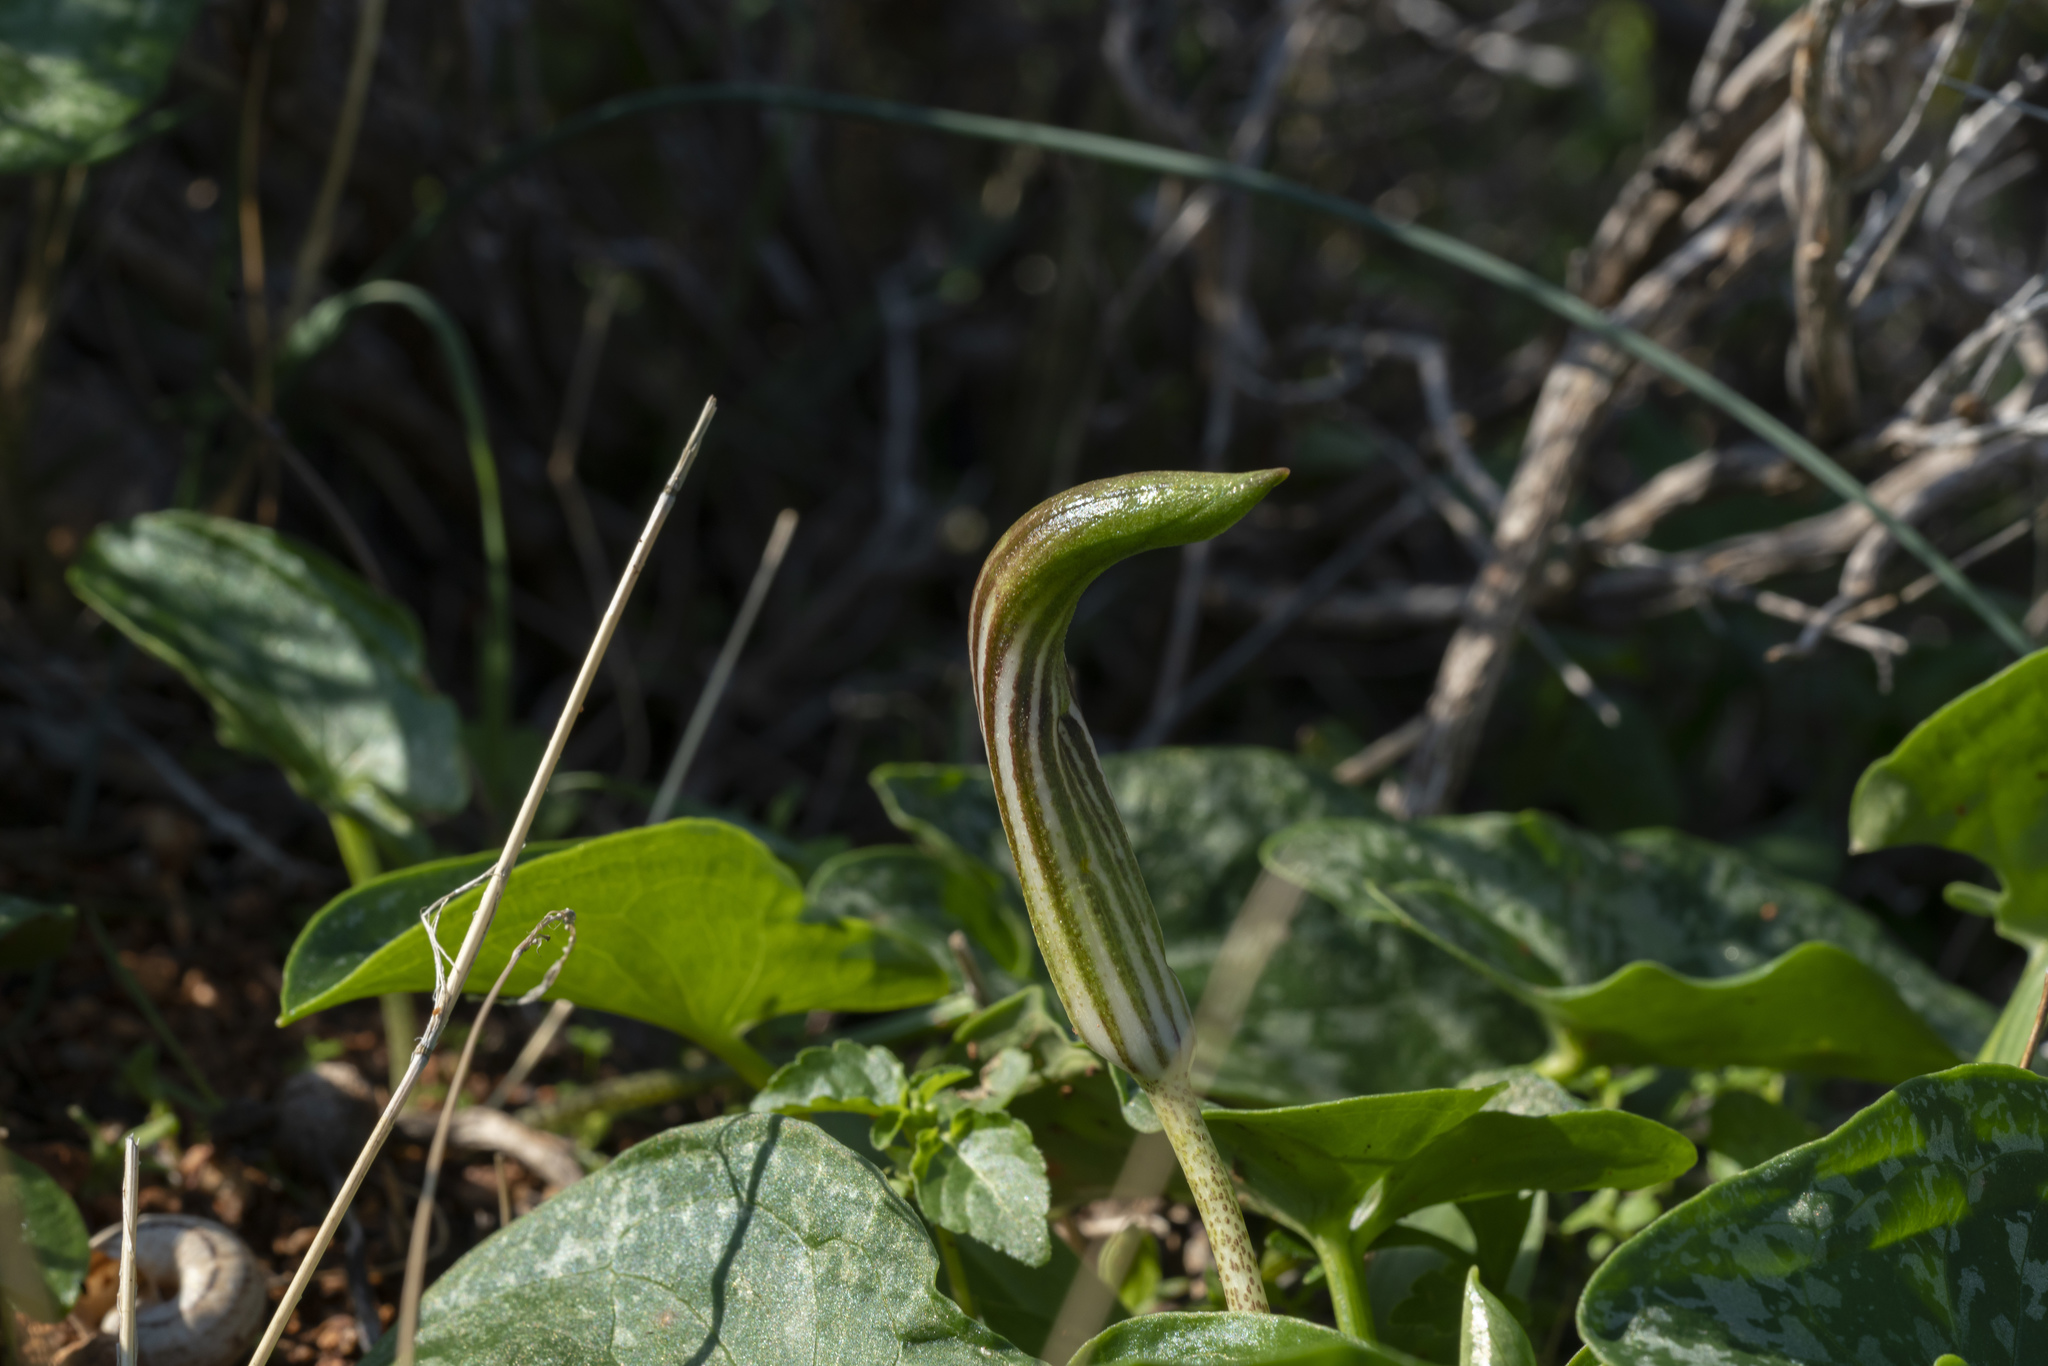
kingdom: Plantae
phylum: Tracheophyta
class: Liliopsida
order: Alismatales
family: Araceae
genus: Arisarum
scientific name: Arisarum vulgare
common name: Common arisarum
